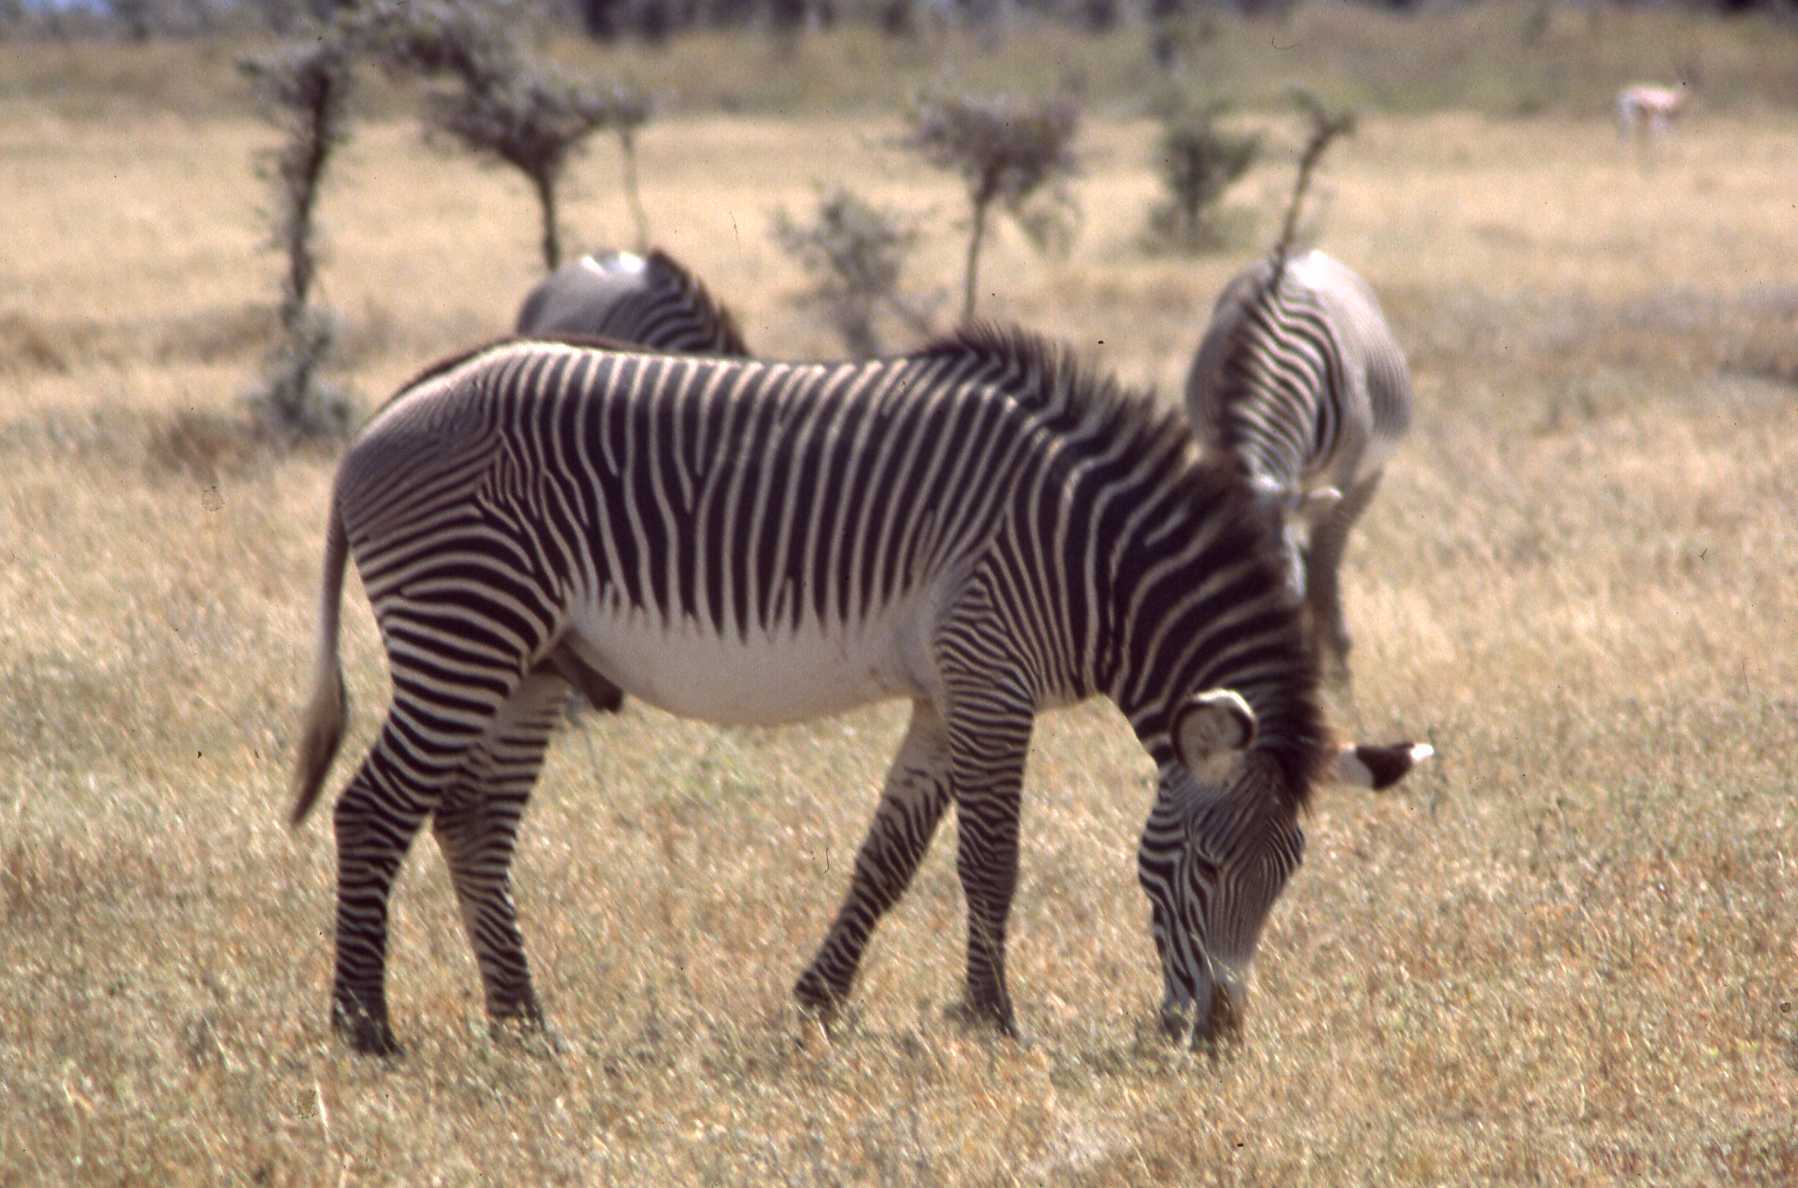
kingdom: Animalia
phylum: Chordata
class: Mammalia
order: Perissodactyla
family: Equidae
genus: Equus
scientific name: Equus grevyi
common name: Grevy's zebra
